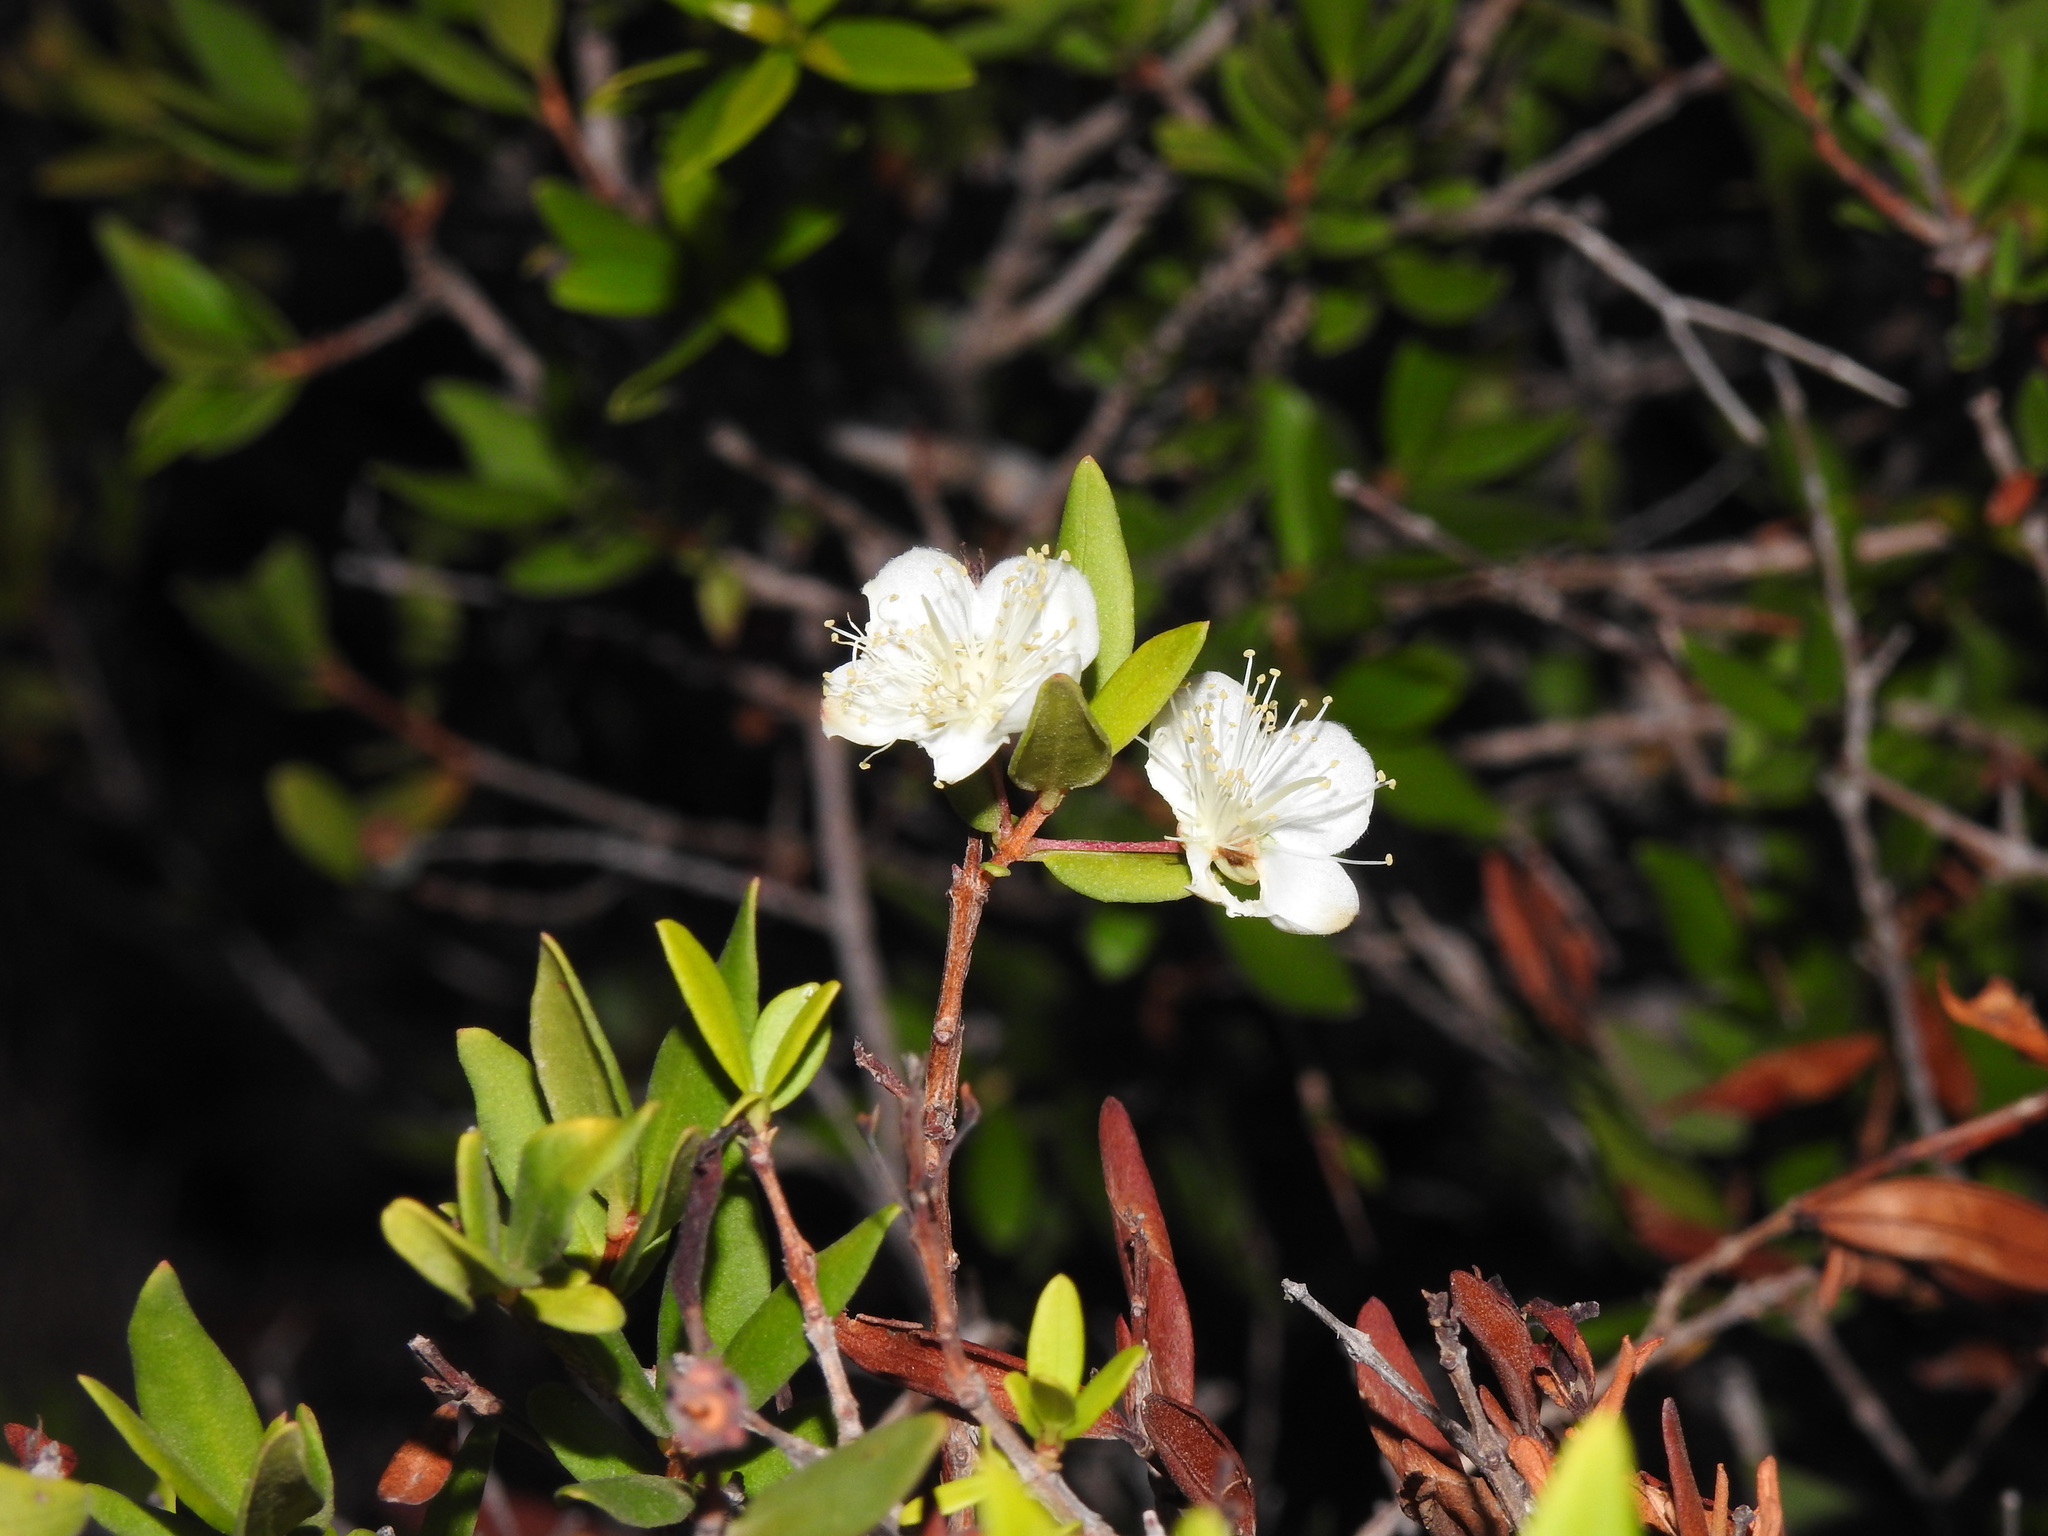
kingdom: Plantae
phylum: Tracheophyta
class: Magnoliopsida
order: Myrtales
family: Myrtaceae
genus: Myrtus
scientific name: Myrtus communis
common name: Myrtle
